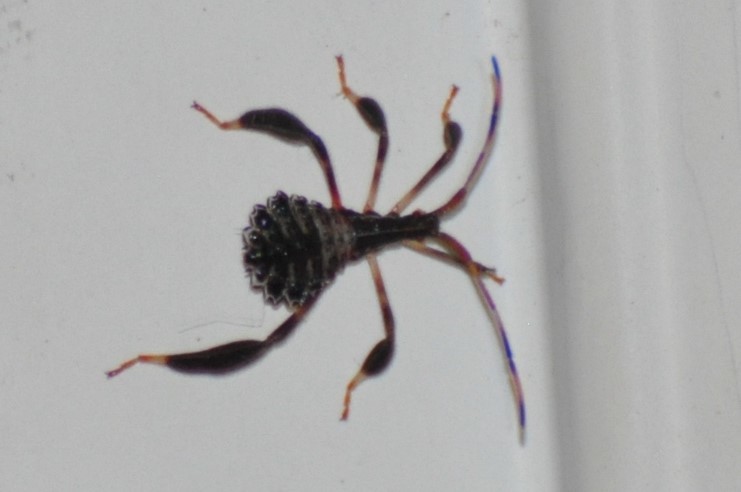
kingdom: Animalia
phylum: Arthropoda
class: Insecta
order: Hemiptera
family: Coreidae
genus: Acanthocephala
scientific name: Acanthocephala terminalis
